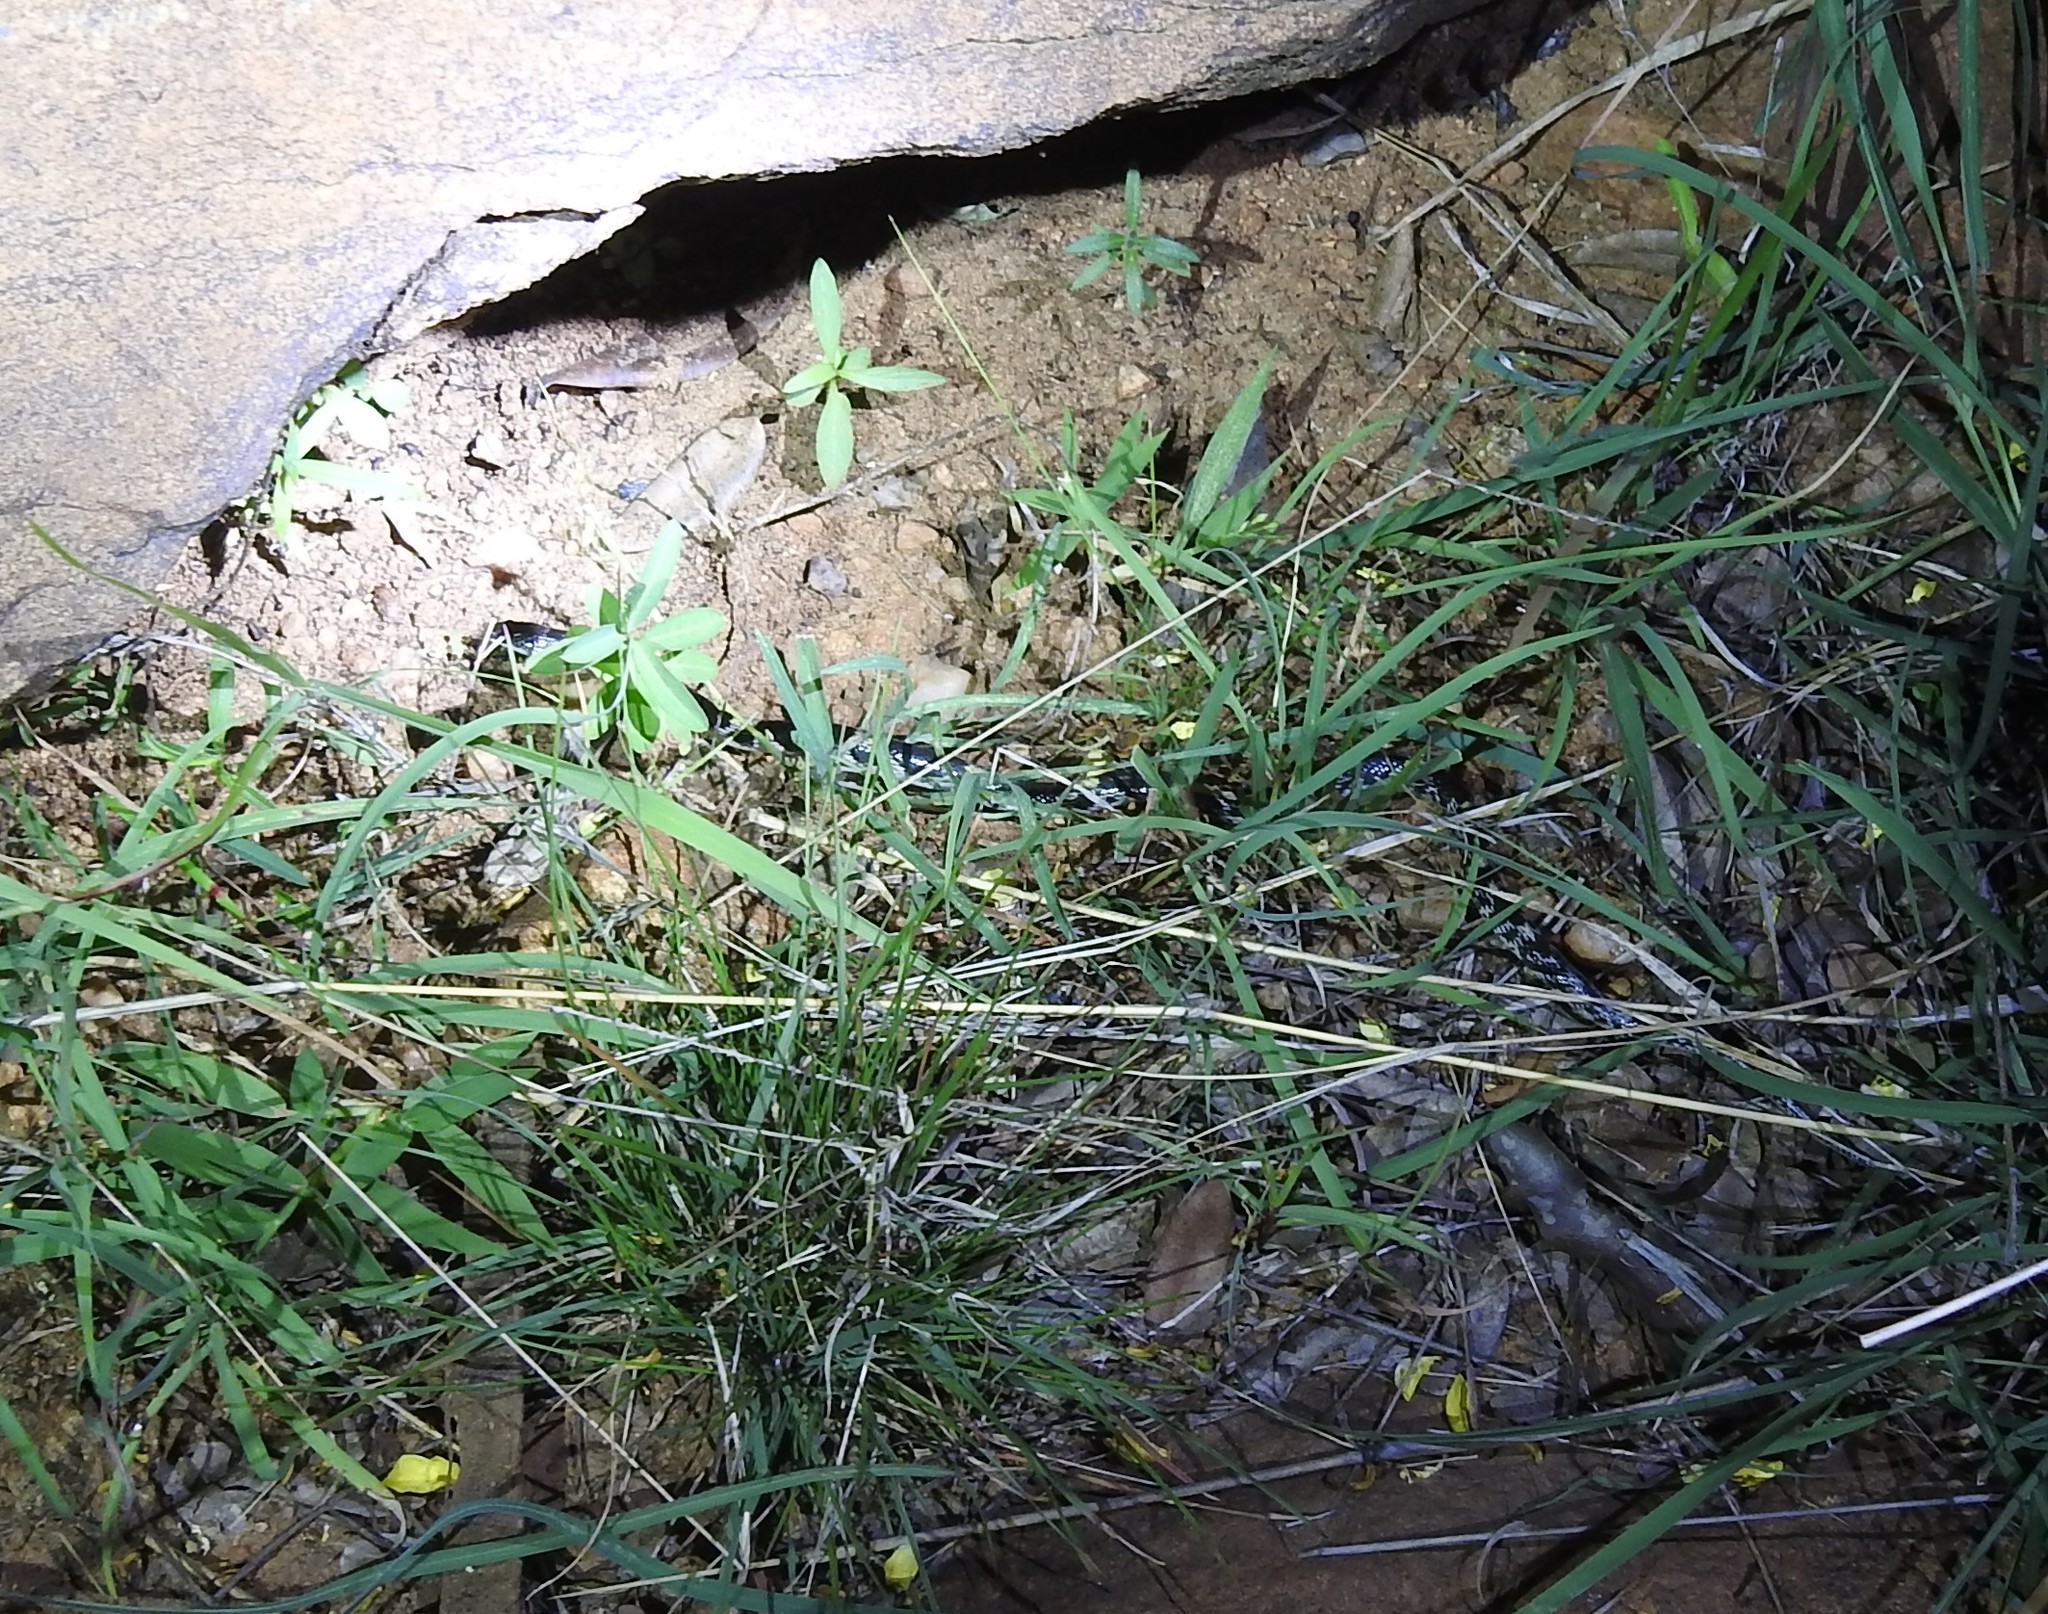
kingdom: Animalia
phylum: Chordata
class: Squamata
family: Colubridae
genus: Lycodon
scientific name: Lycodon striatus
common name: Barred wolf snake
